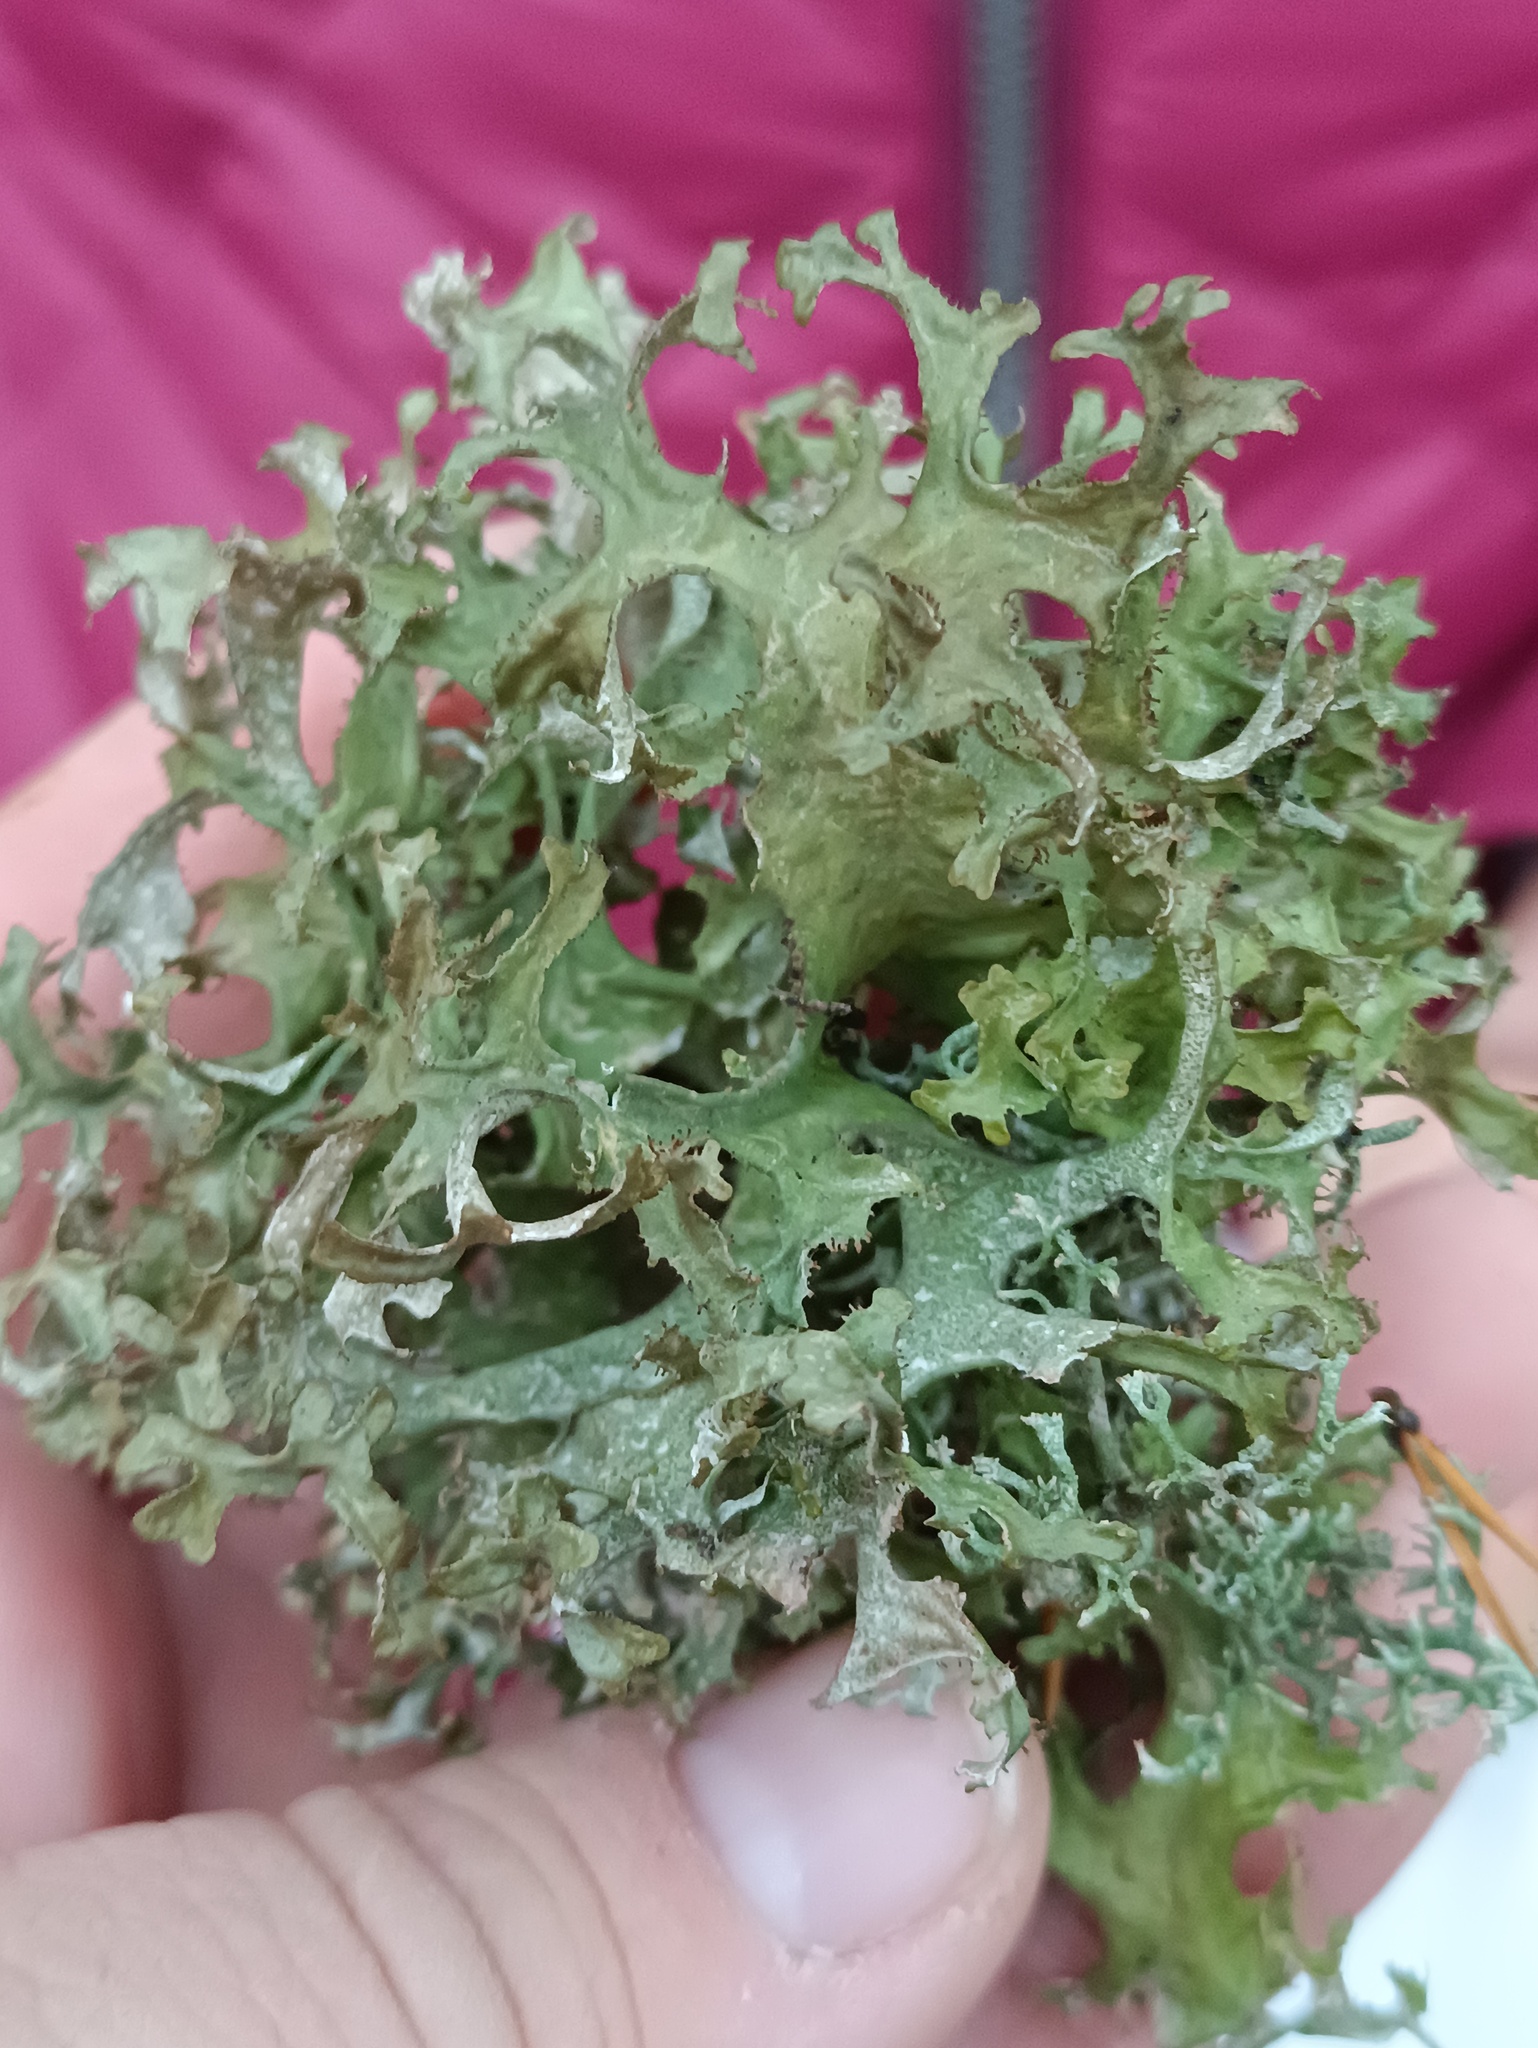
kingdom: Fungi
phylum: Ascomycota
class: Lecanoromycetes
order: Lecanorales
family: Parmeliaceae
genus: Cetraria
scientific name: Cetraria islandica
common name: Iceland lichen
